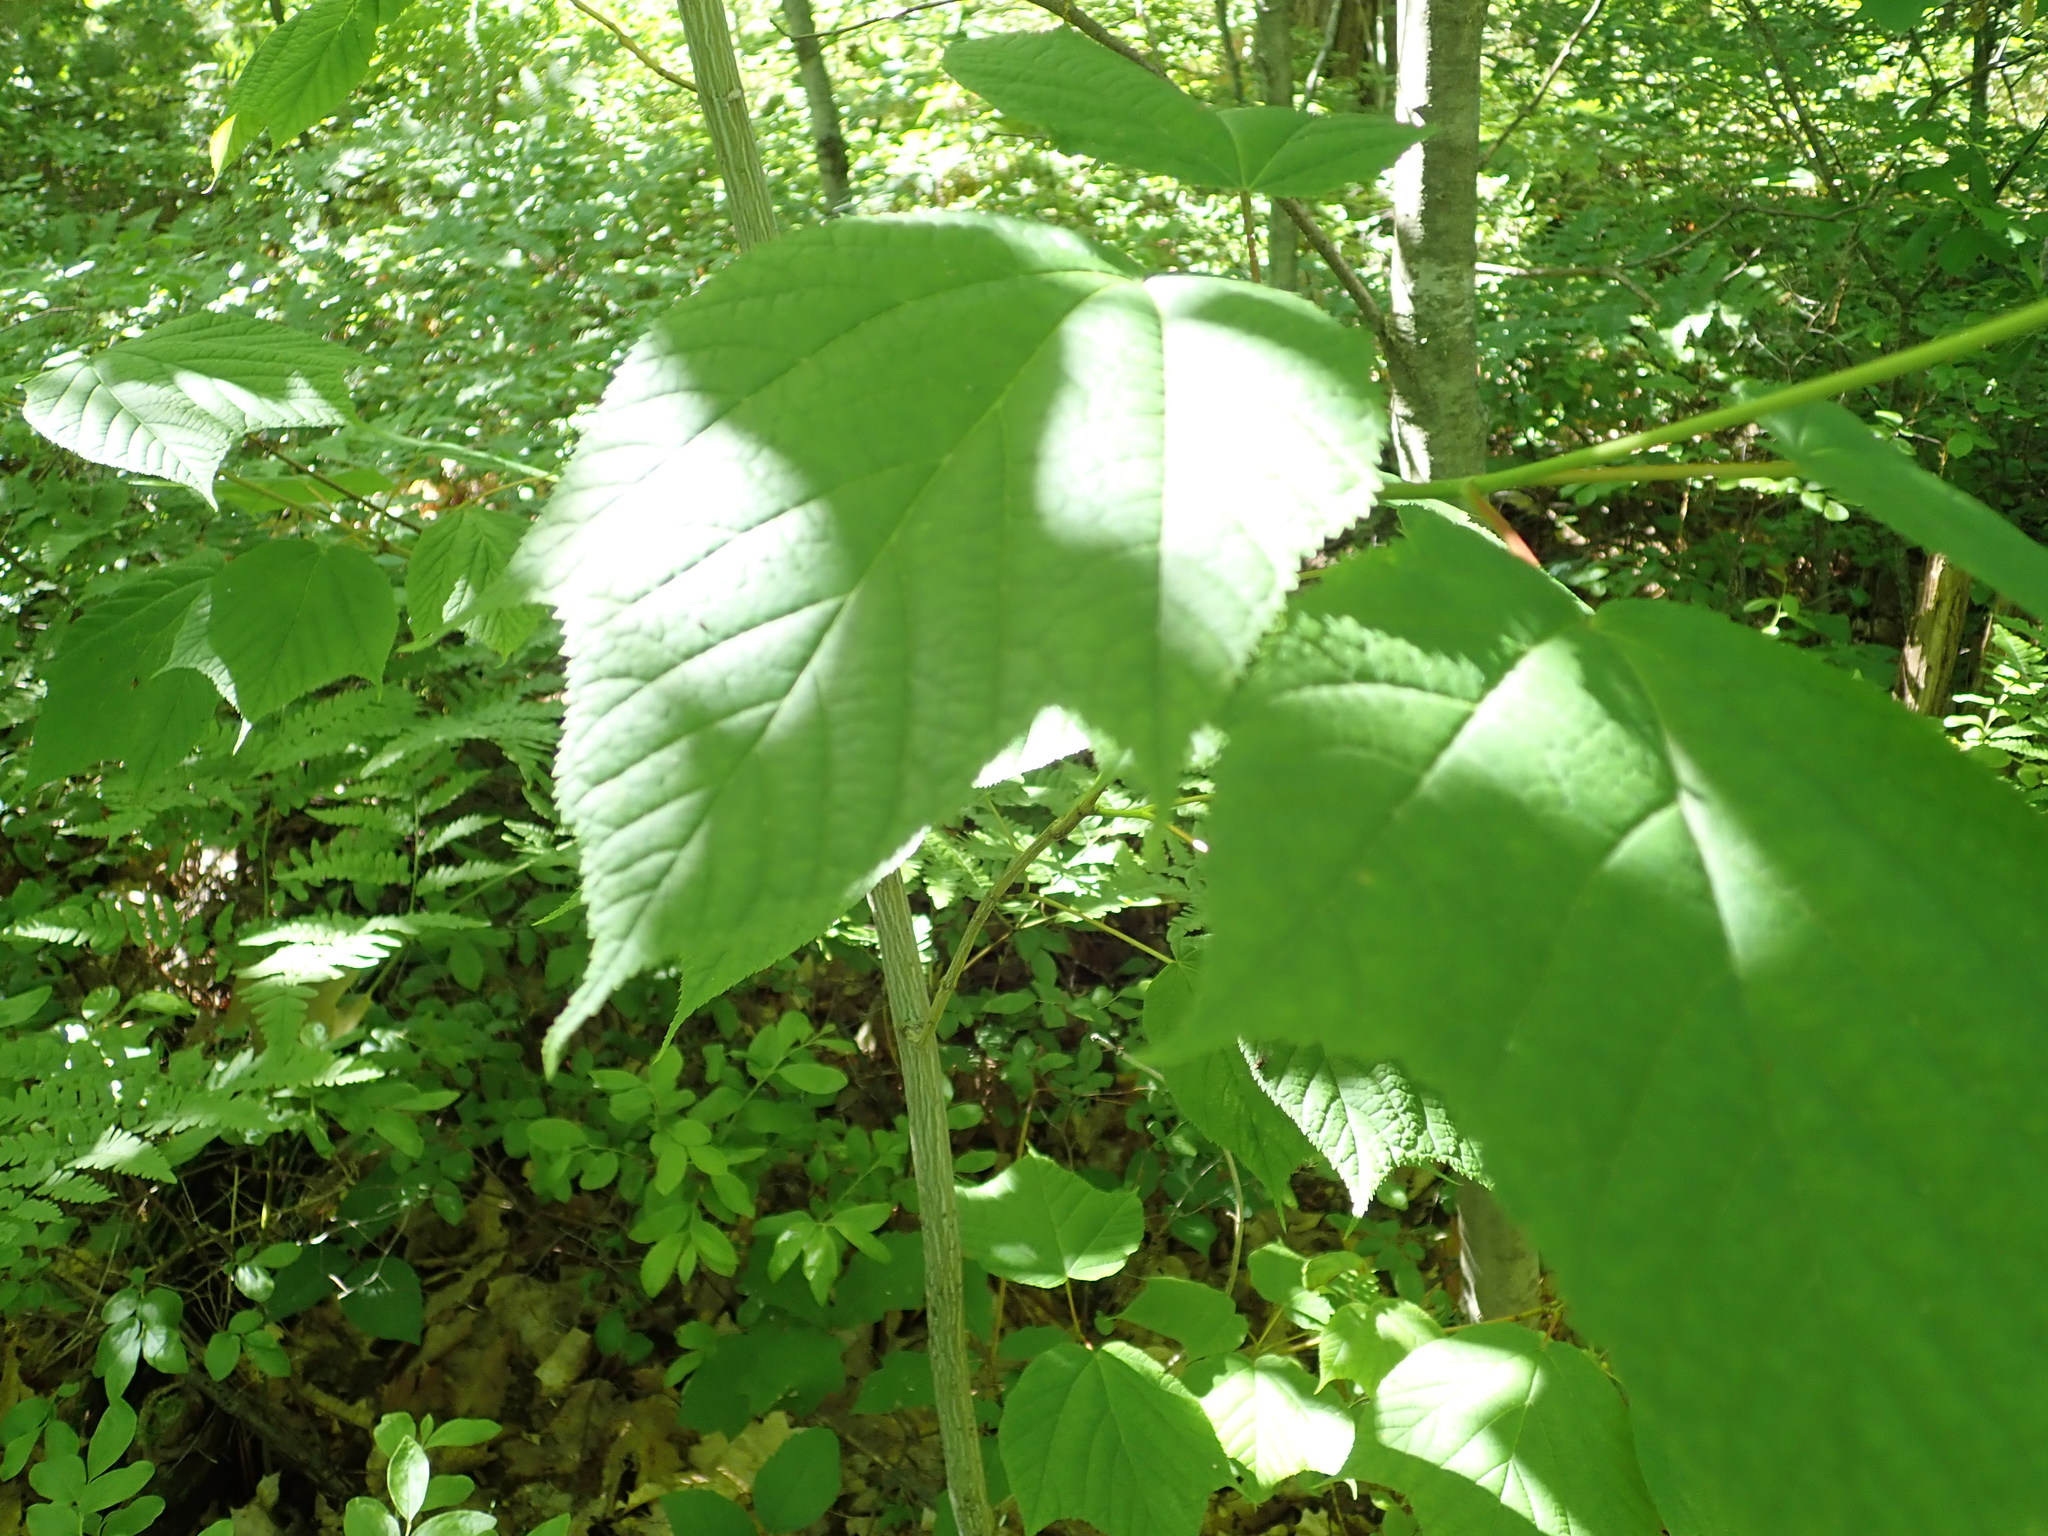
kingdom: Plantae
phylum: Tracheophyta
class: Magnoliopsida
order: Sapindales
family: Sapindaceae
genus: Acer
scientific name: Acer pensylvanicum
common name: Moosewood
